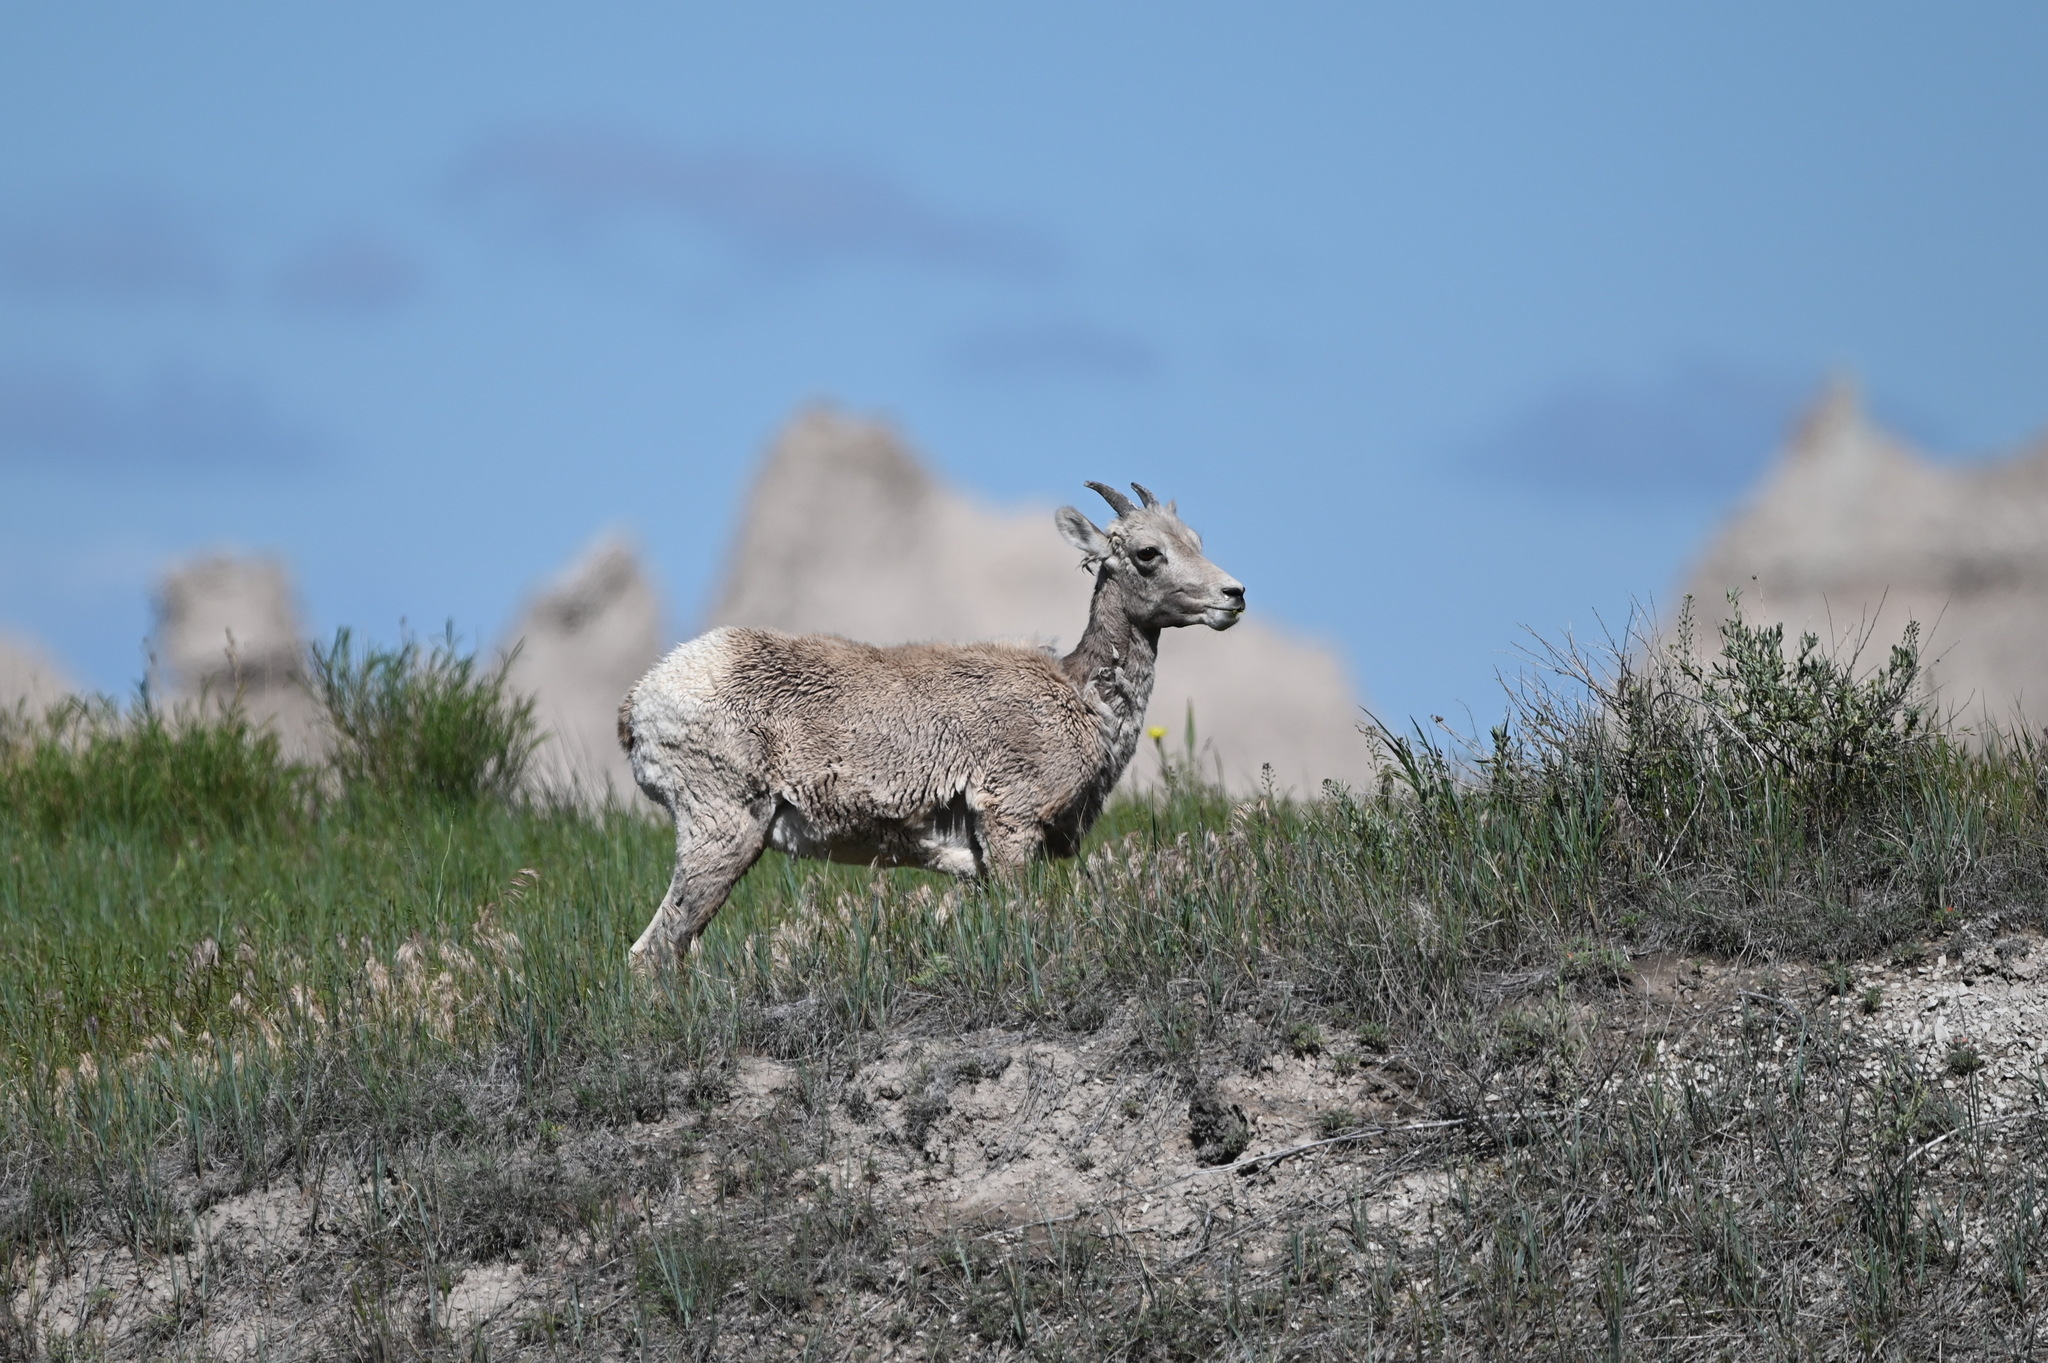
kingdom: Animalia
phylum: Chordata
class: Mammalia
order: Artiodactyla
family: Bovidae
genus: Ovis
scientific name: Ovis canadensis
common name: Bighorn sheep
